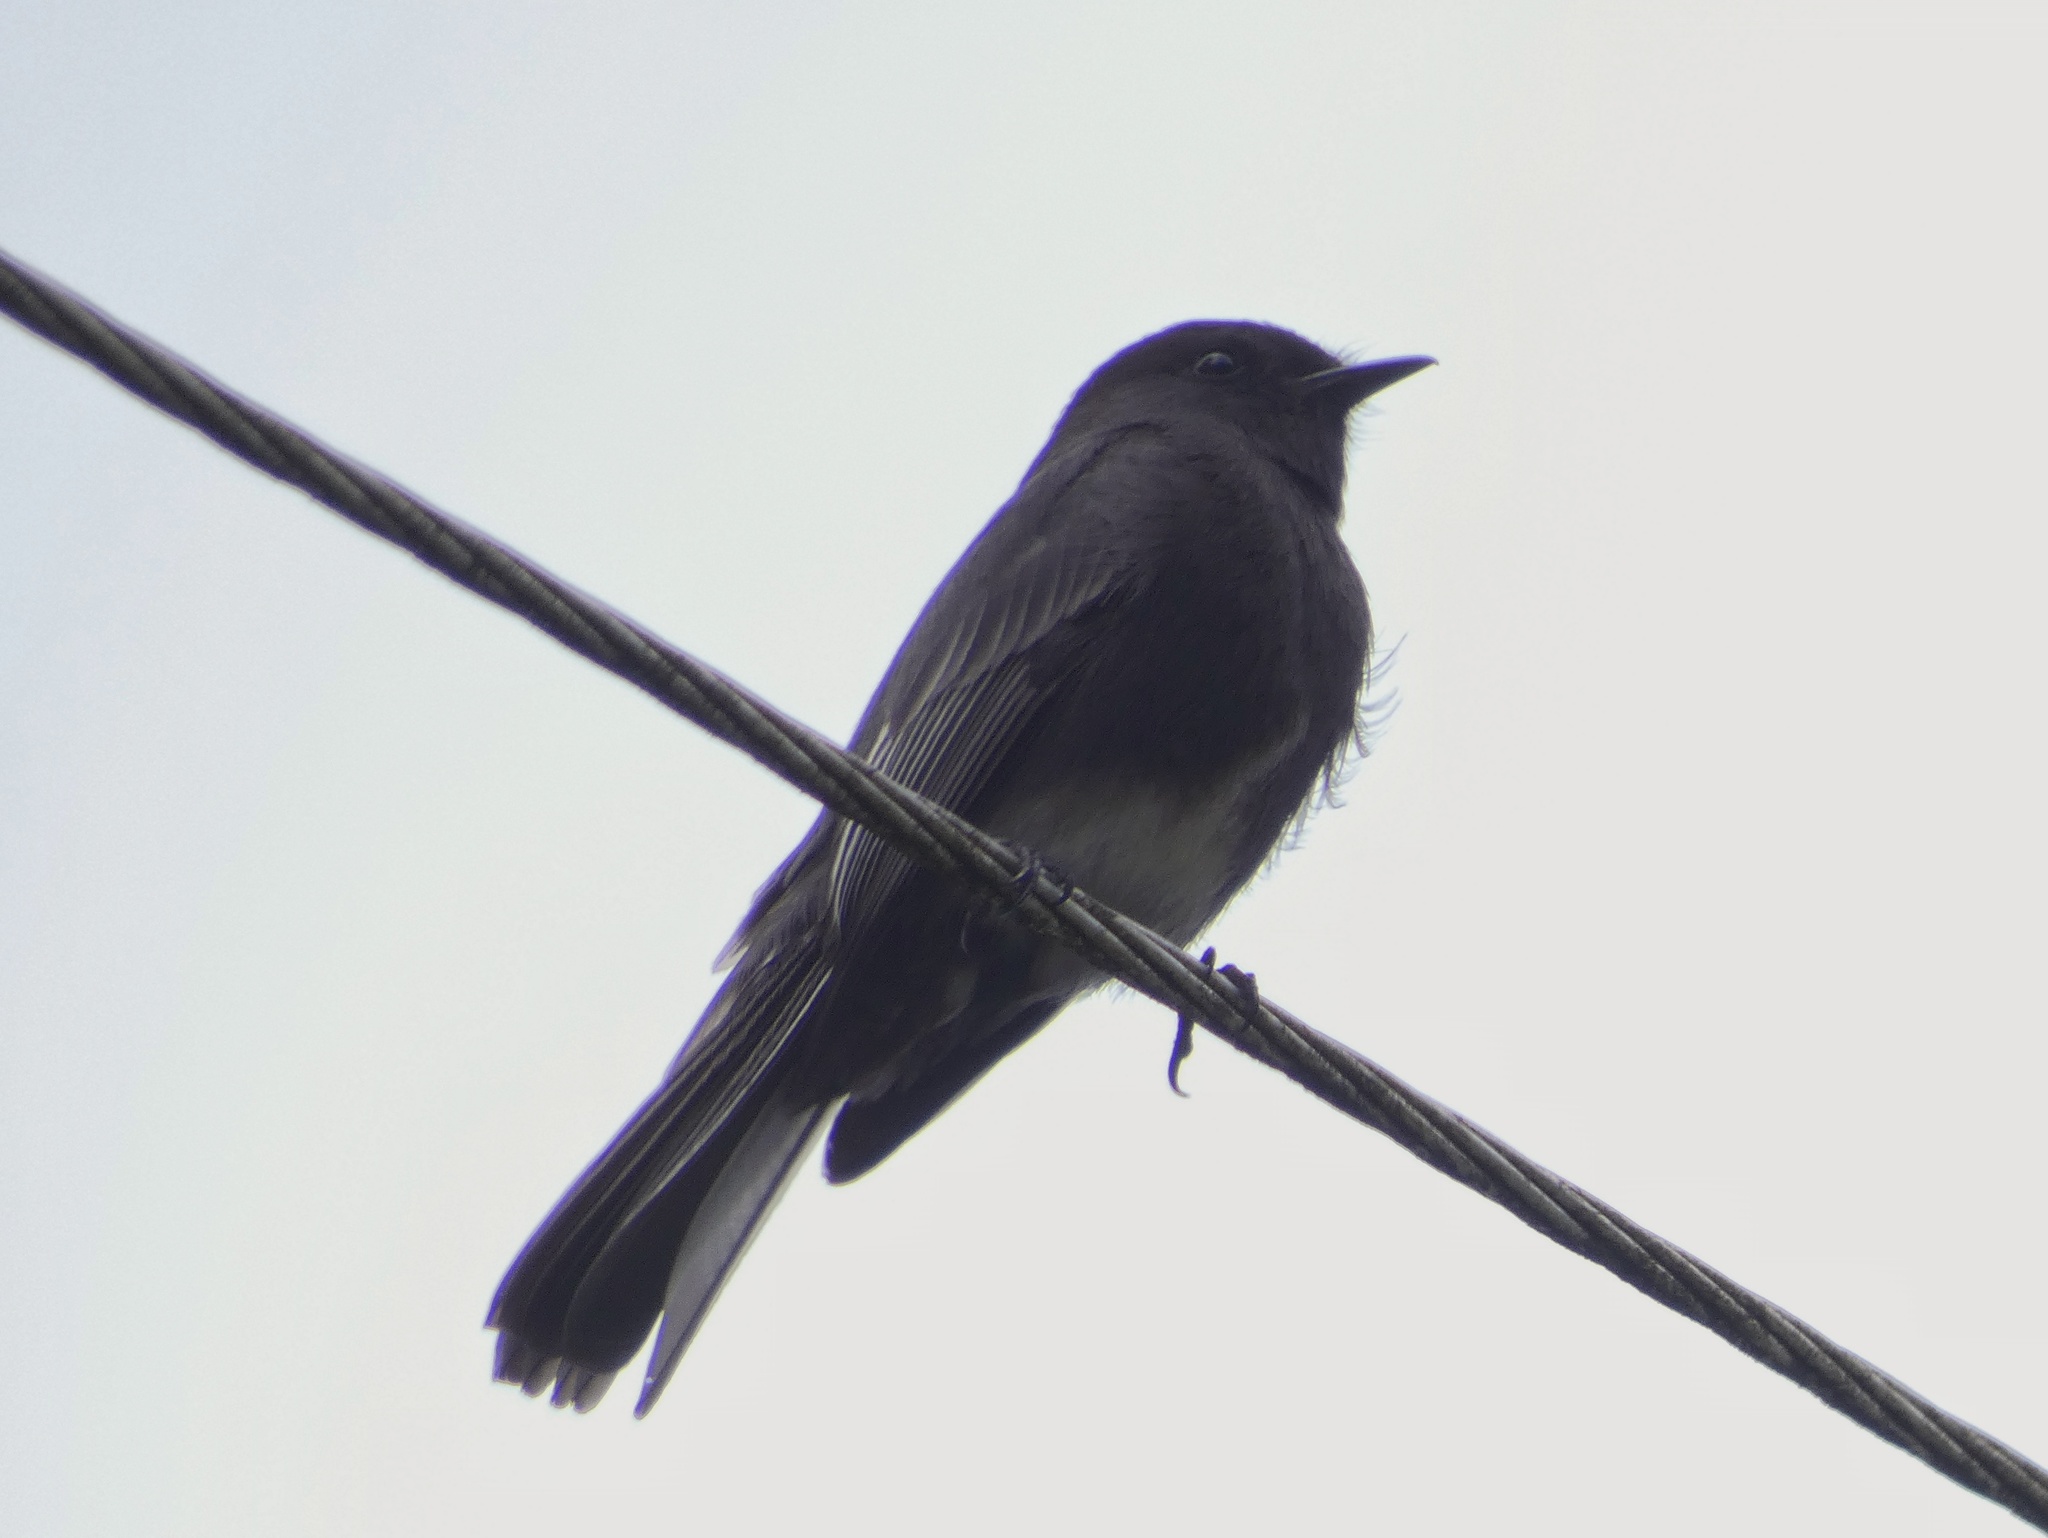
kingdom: Animalia
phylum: Chordata
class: Aves
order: Passeriformes
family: Tyrannidae
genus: Sayornis
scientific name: Sayornis nigricans
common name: Black phoebe
